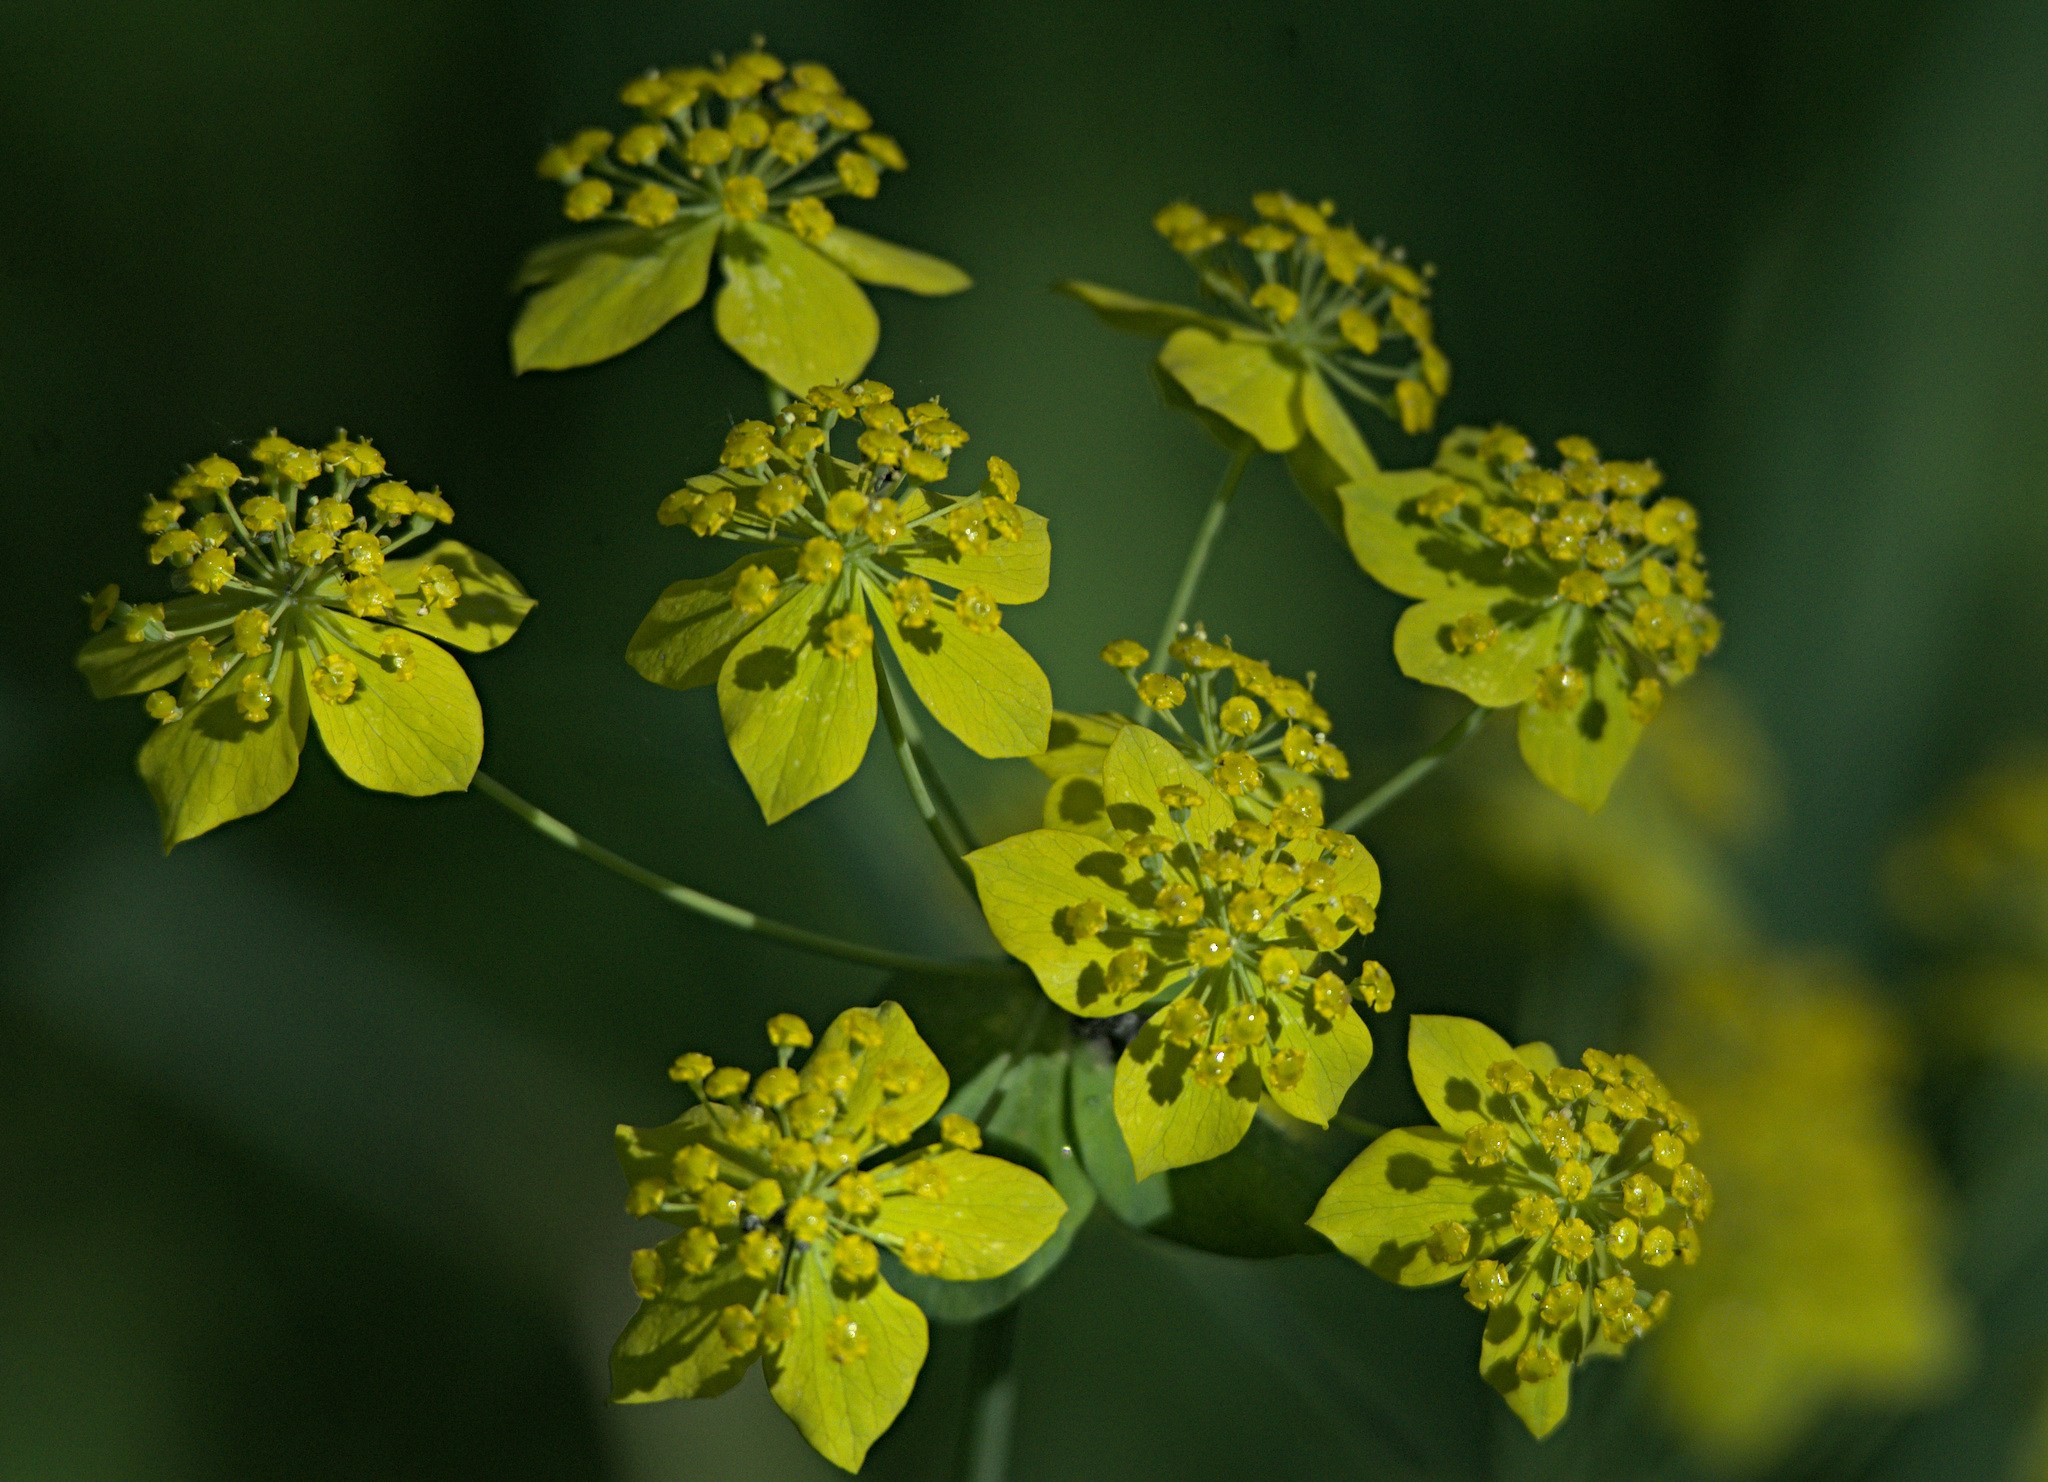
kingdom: Plantae
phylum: Tracheophyta
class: Magnoliopsida
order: Apiales
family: Apiaceae
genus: Bupleurum
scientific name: Bupleurum aureum
